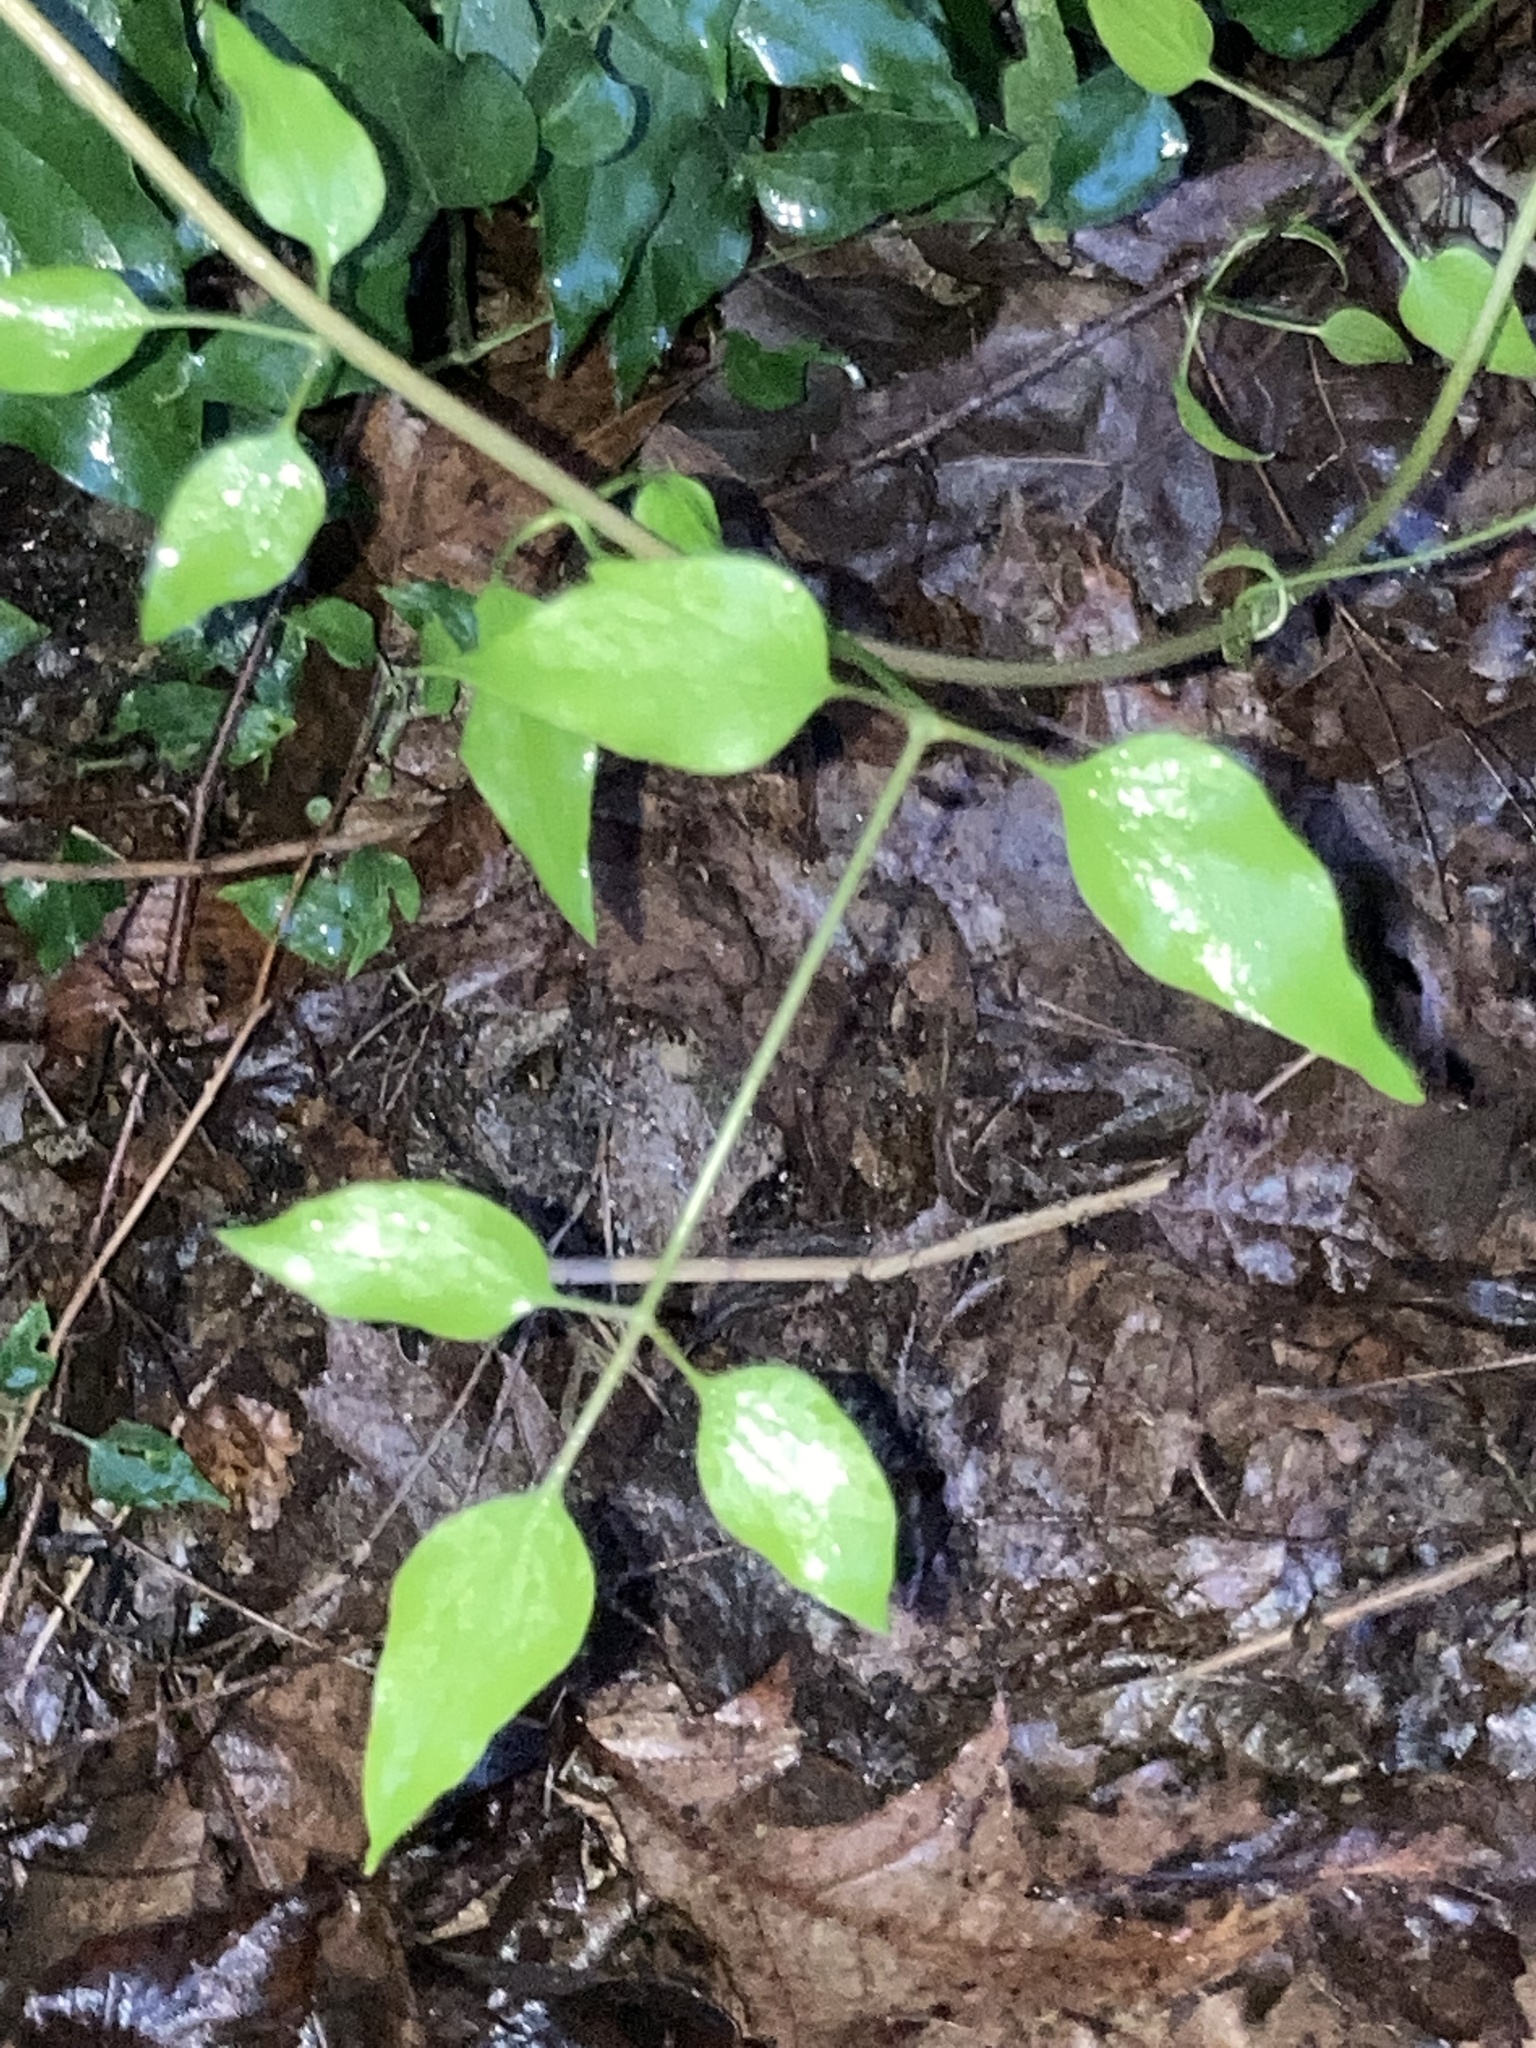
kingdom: Plantae
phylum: Tracheophyta
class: Magnoliopsida
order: Ranunculales
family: Ranunculaceae
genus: Clematis
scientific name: Clematis terniflora
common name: Sweet autumn clematis
